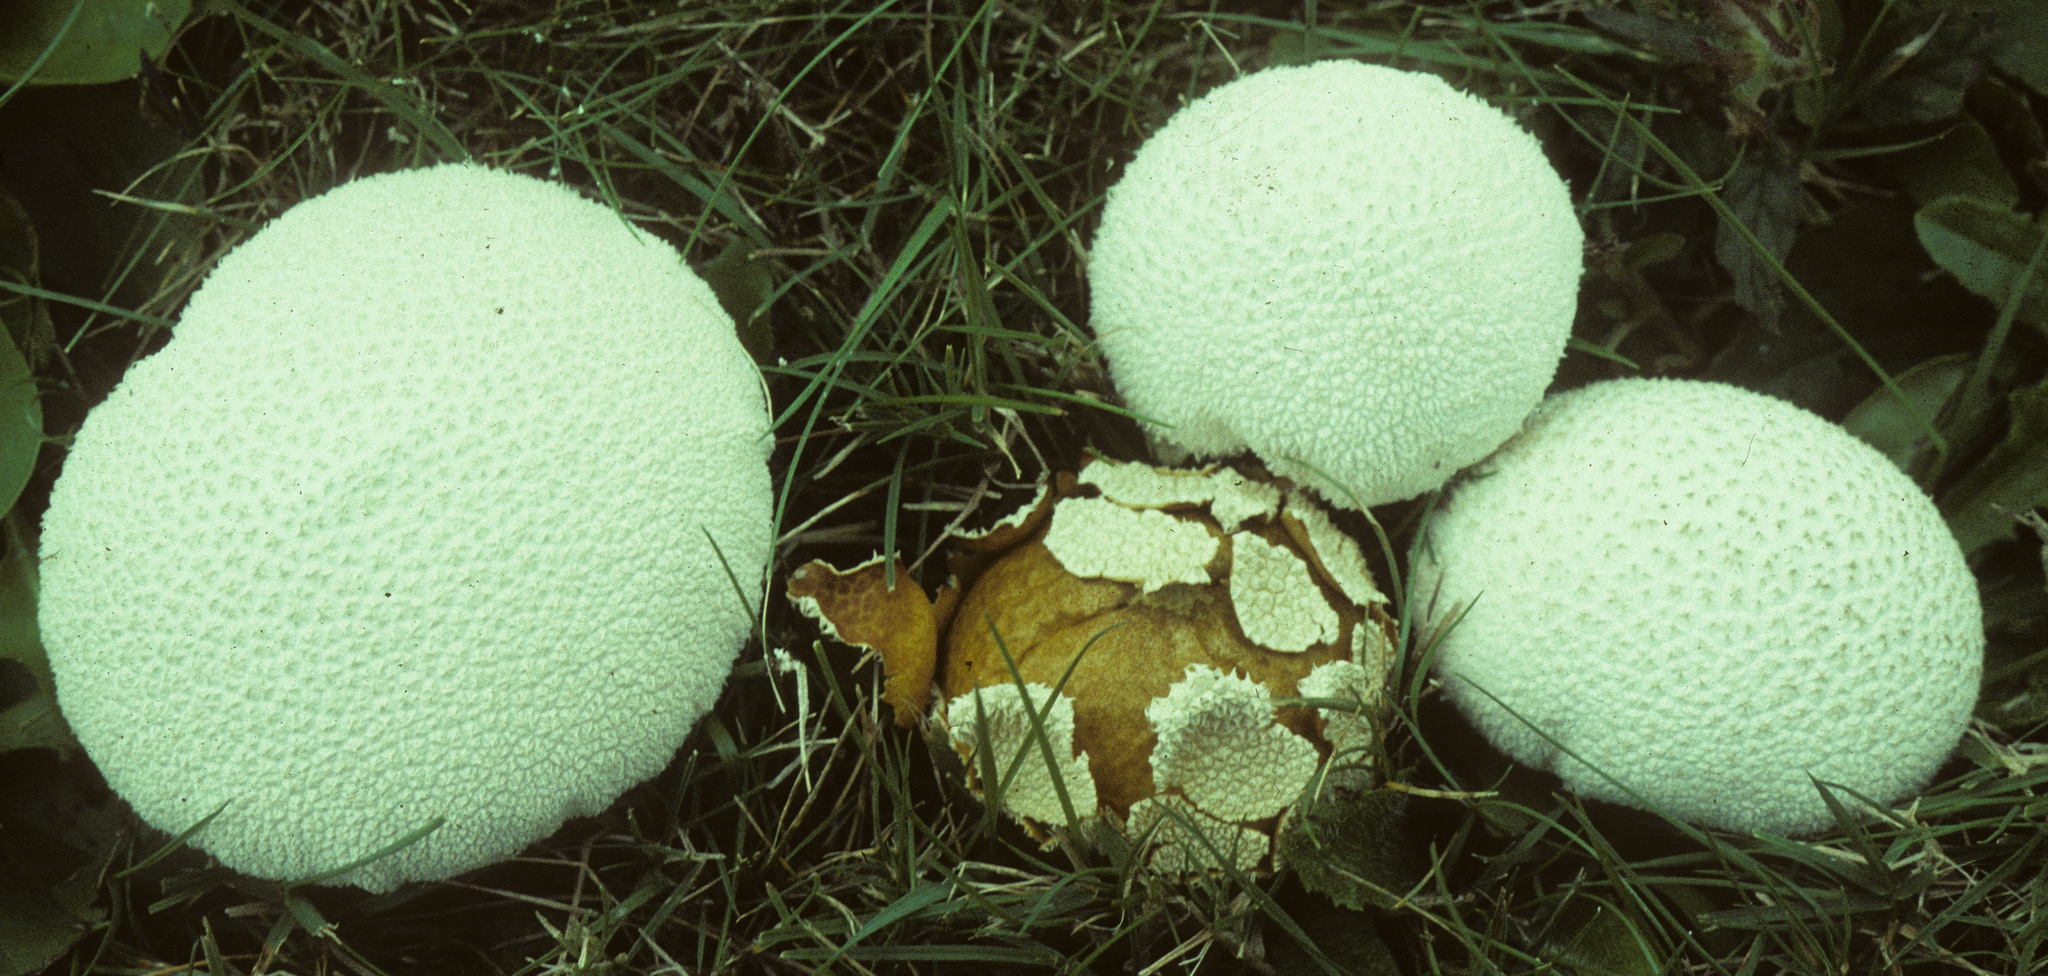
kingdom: Fungi
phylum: Basidiomycota
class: Agaricomycetes
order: Agaricales
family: Agaricaceae
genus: Lycoperdon
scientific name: Lycoperdon marginatum
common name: Peeling puffball
